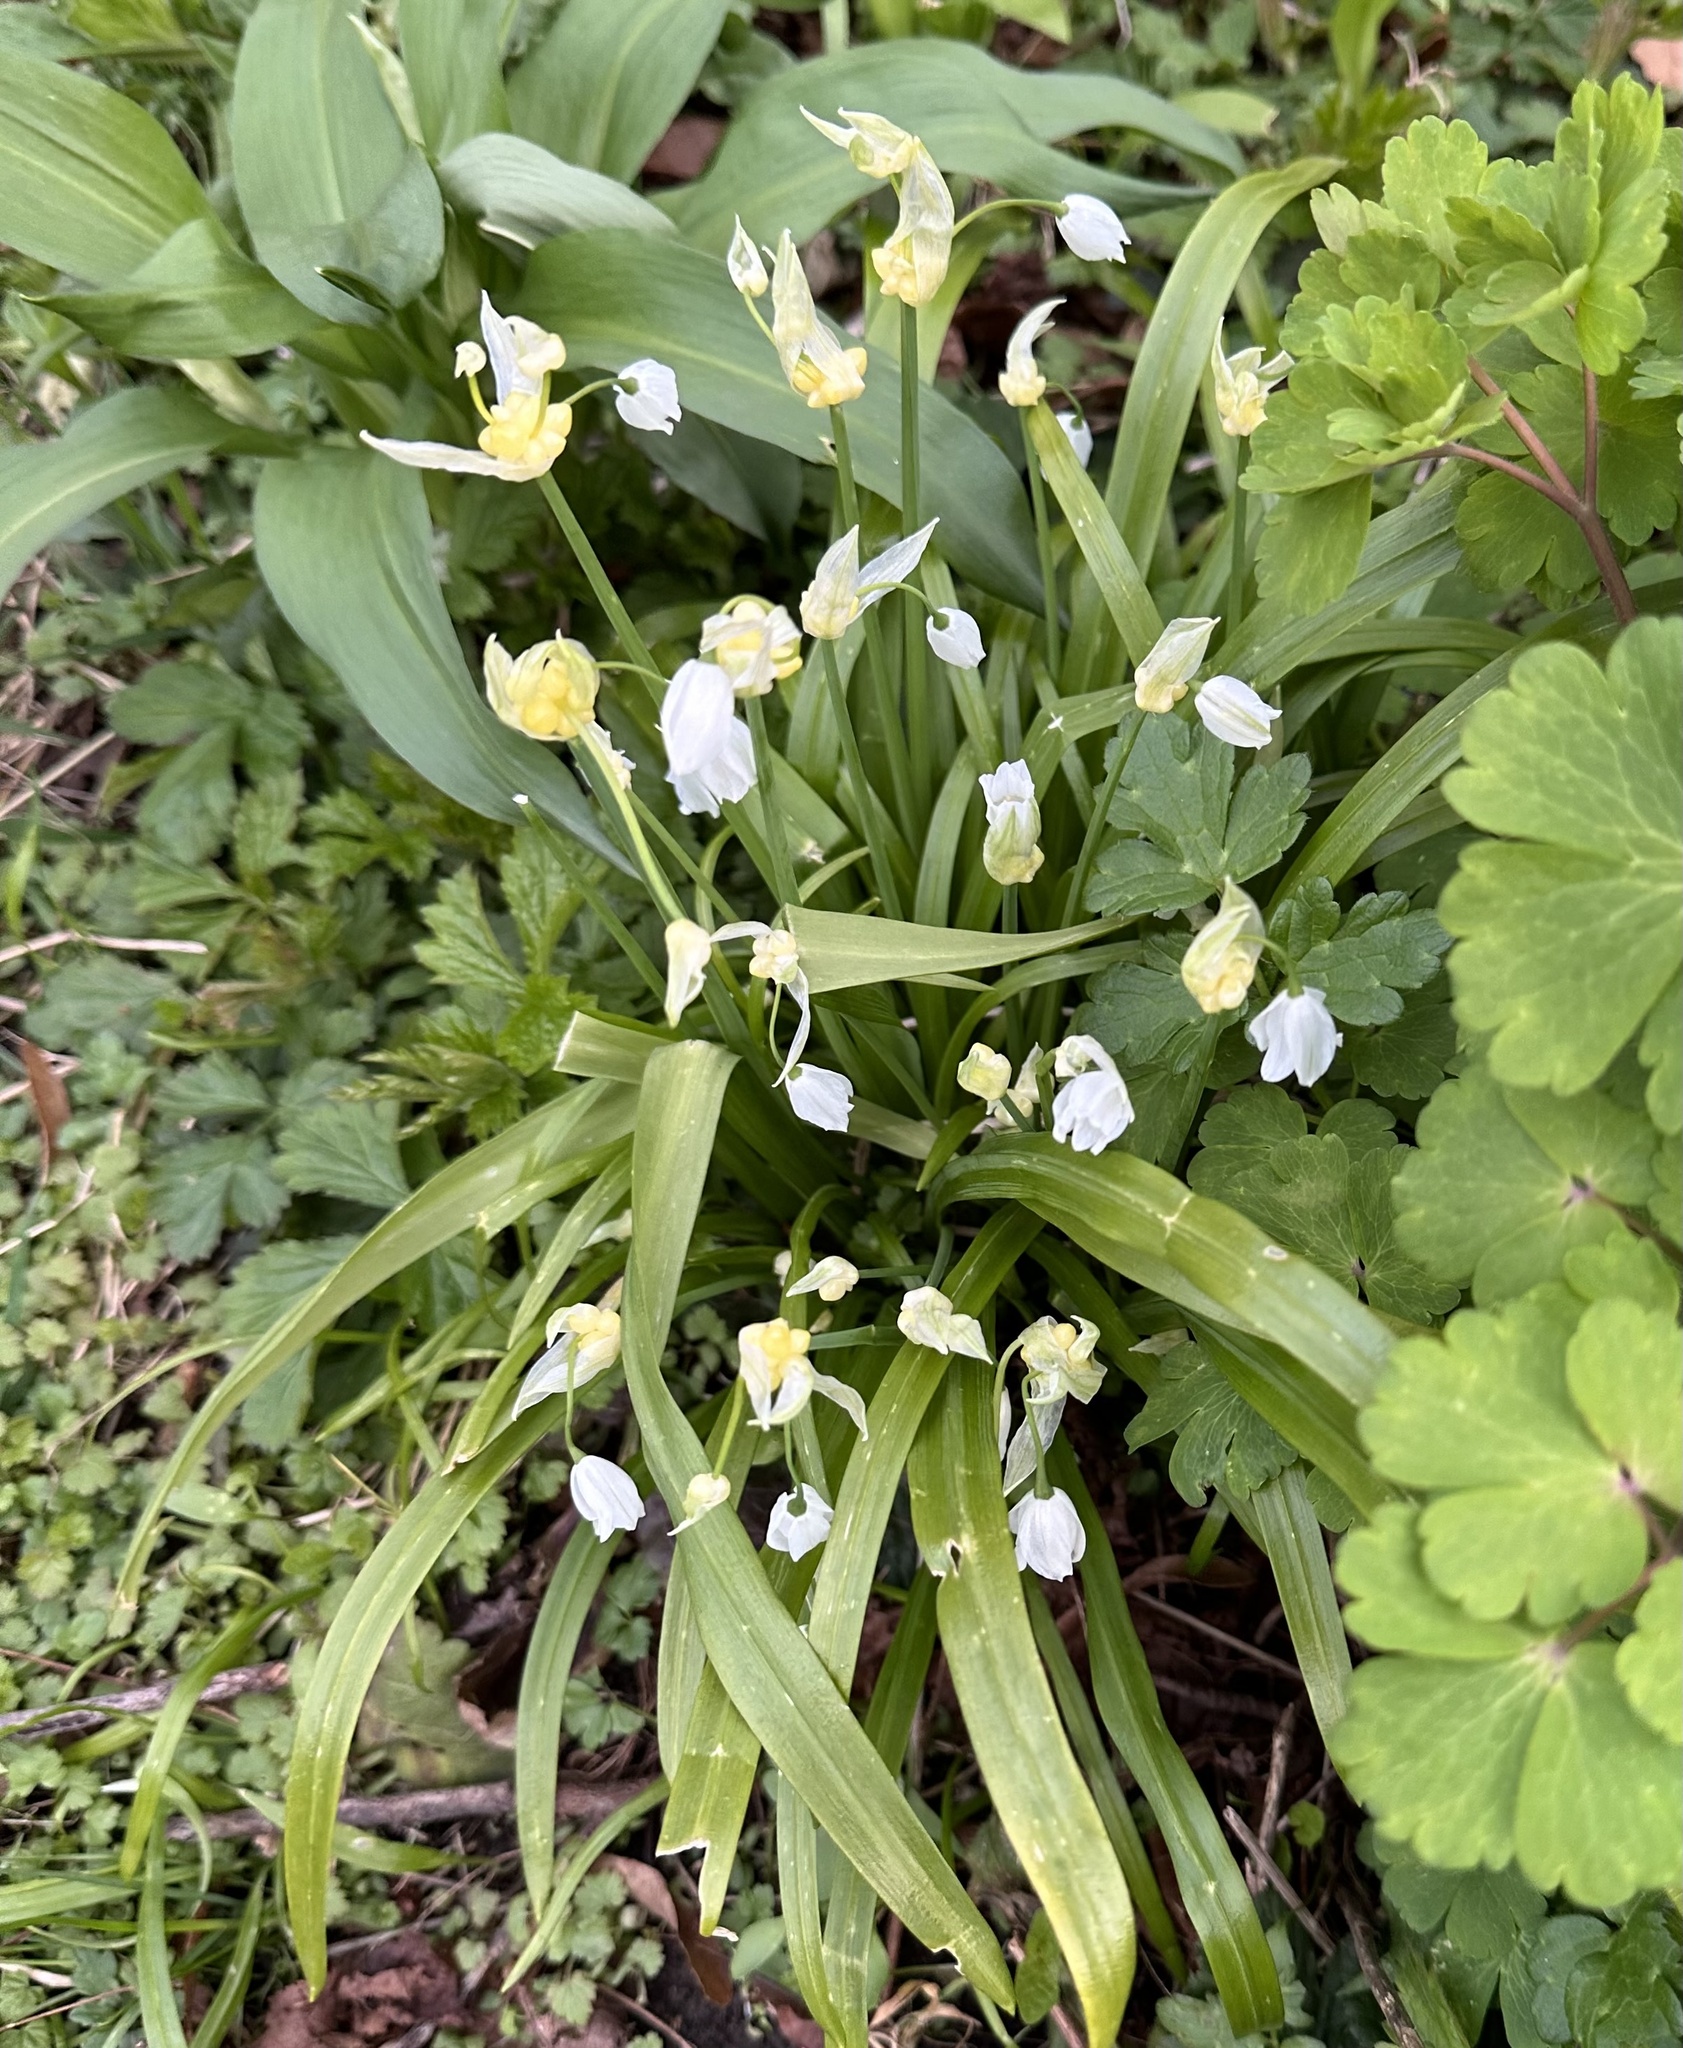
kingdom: Plantae
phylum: Tracheophyta
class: Liliopsida
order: Asparagales
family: Amaryllidaceae
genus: Allium
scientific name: Allium paradoxum
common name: Few-flowered garlic
